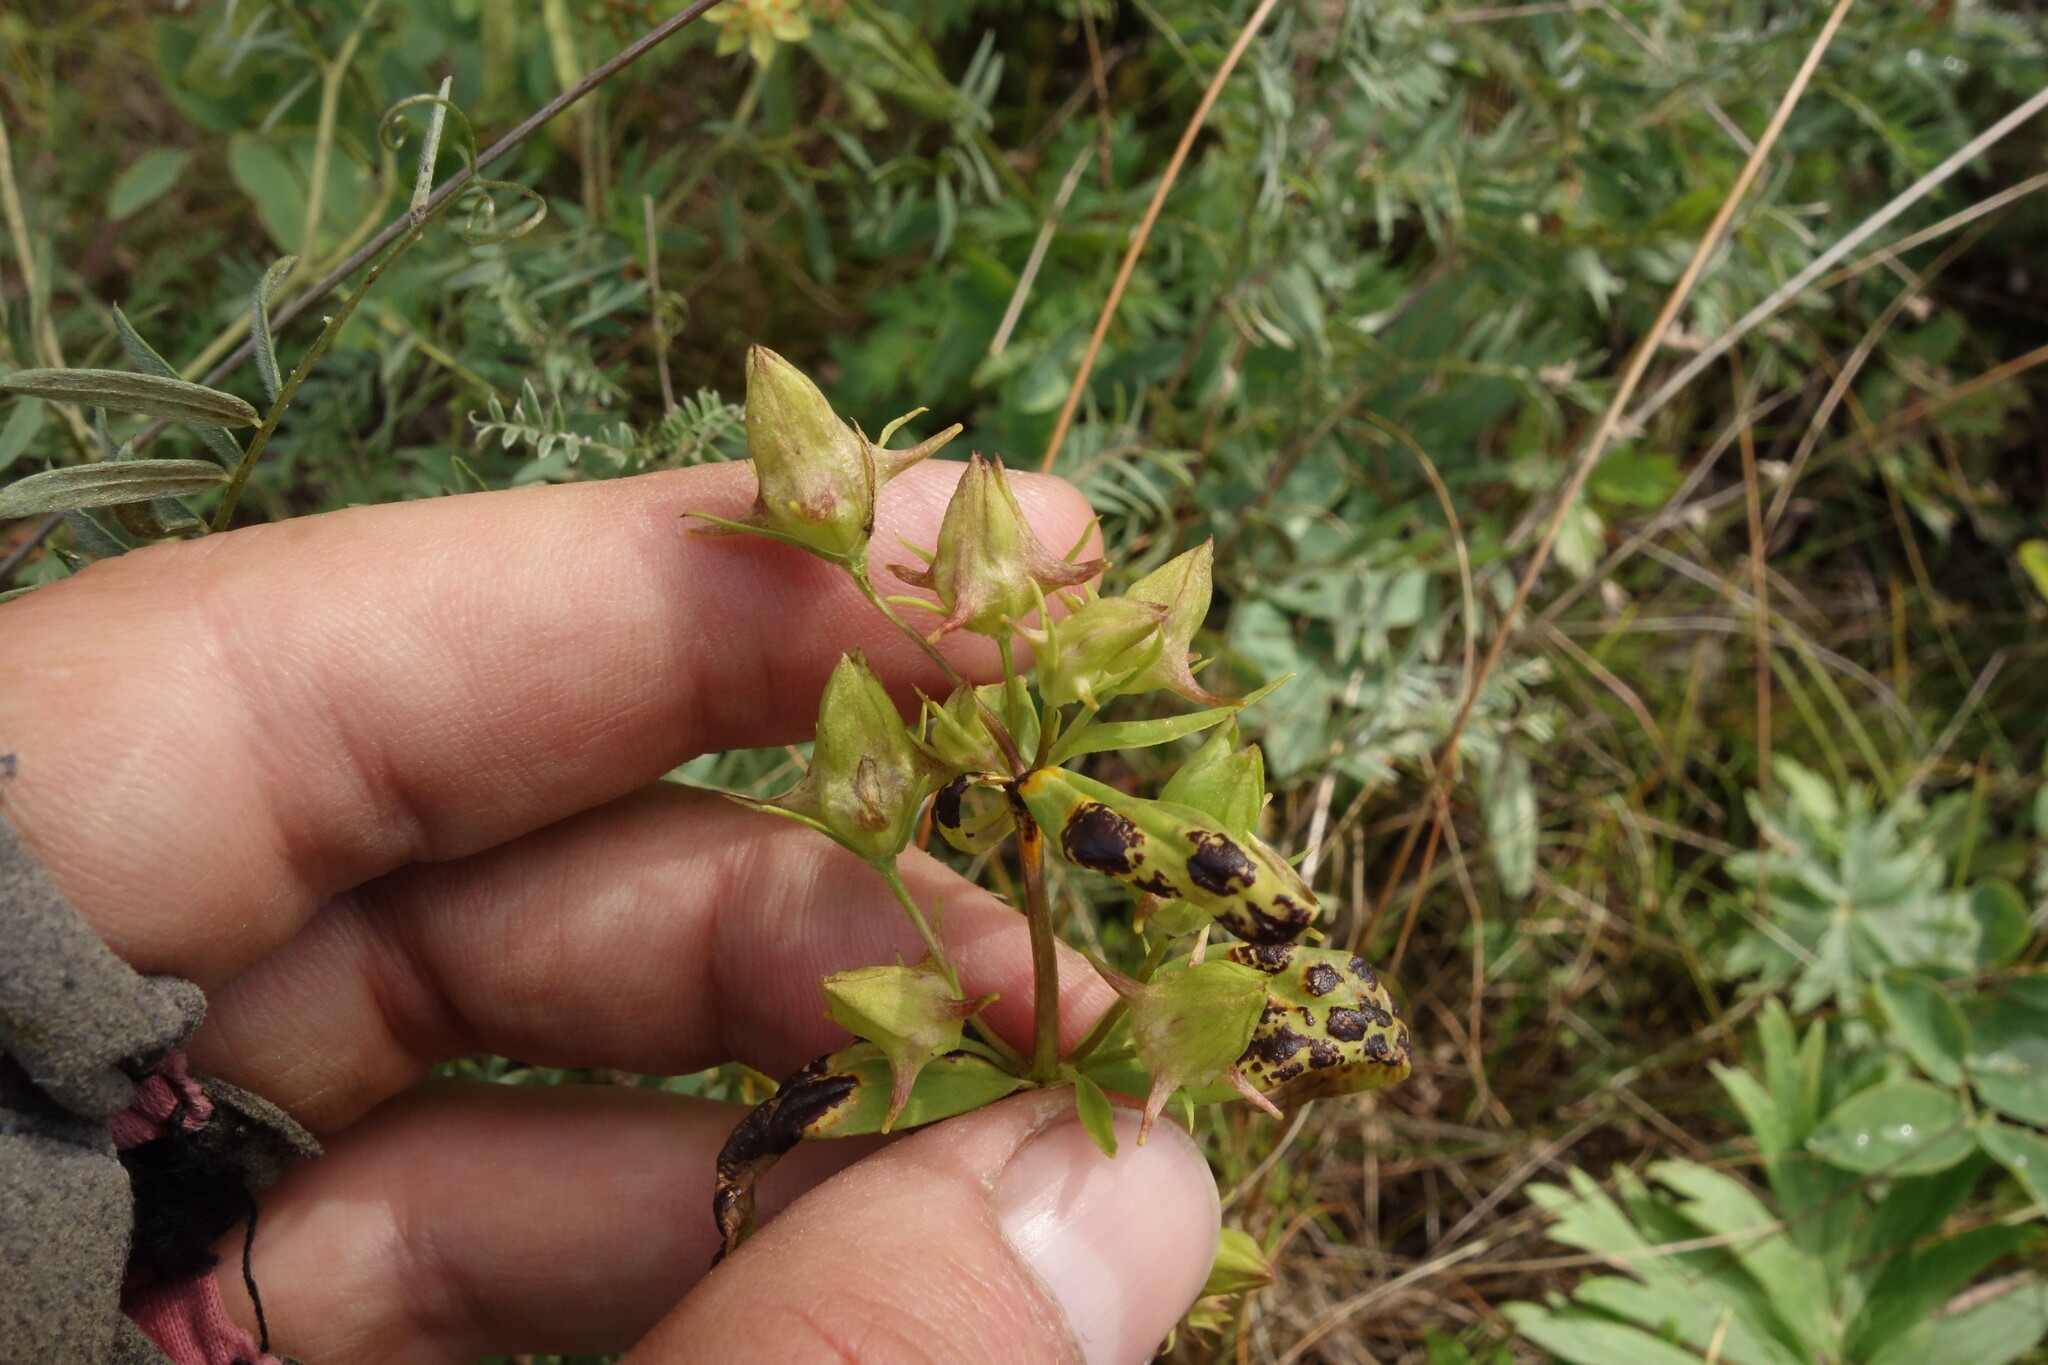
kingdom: Plantae
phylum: Tracheophyta
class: Magnoliopsida
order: Gentianales
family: Gentianaceae
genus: Halenia
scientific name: Halenia corniculata
